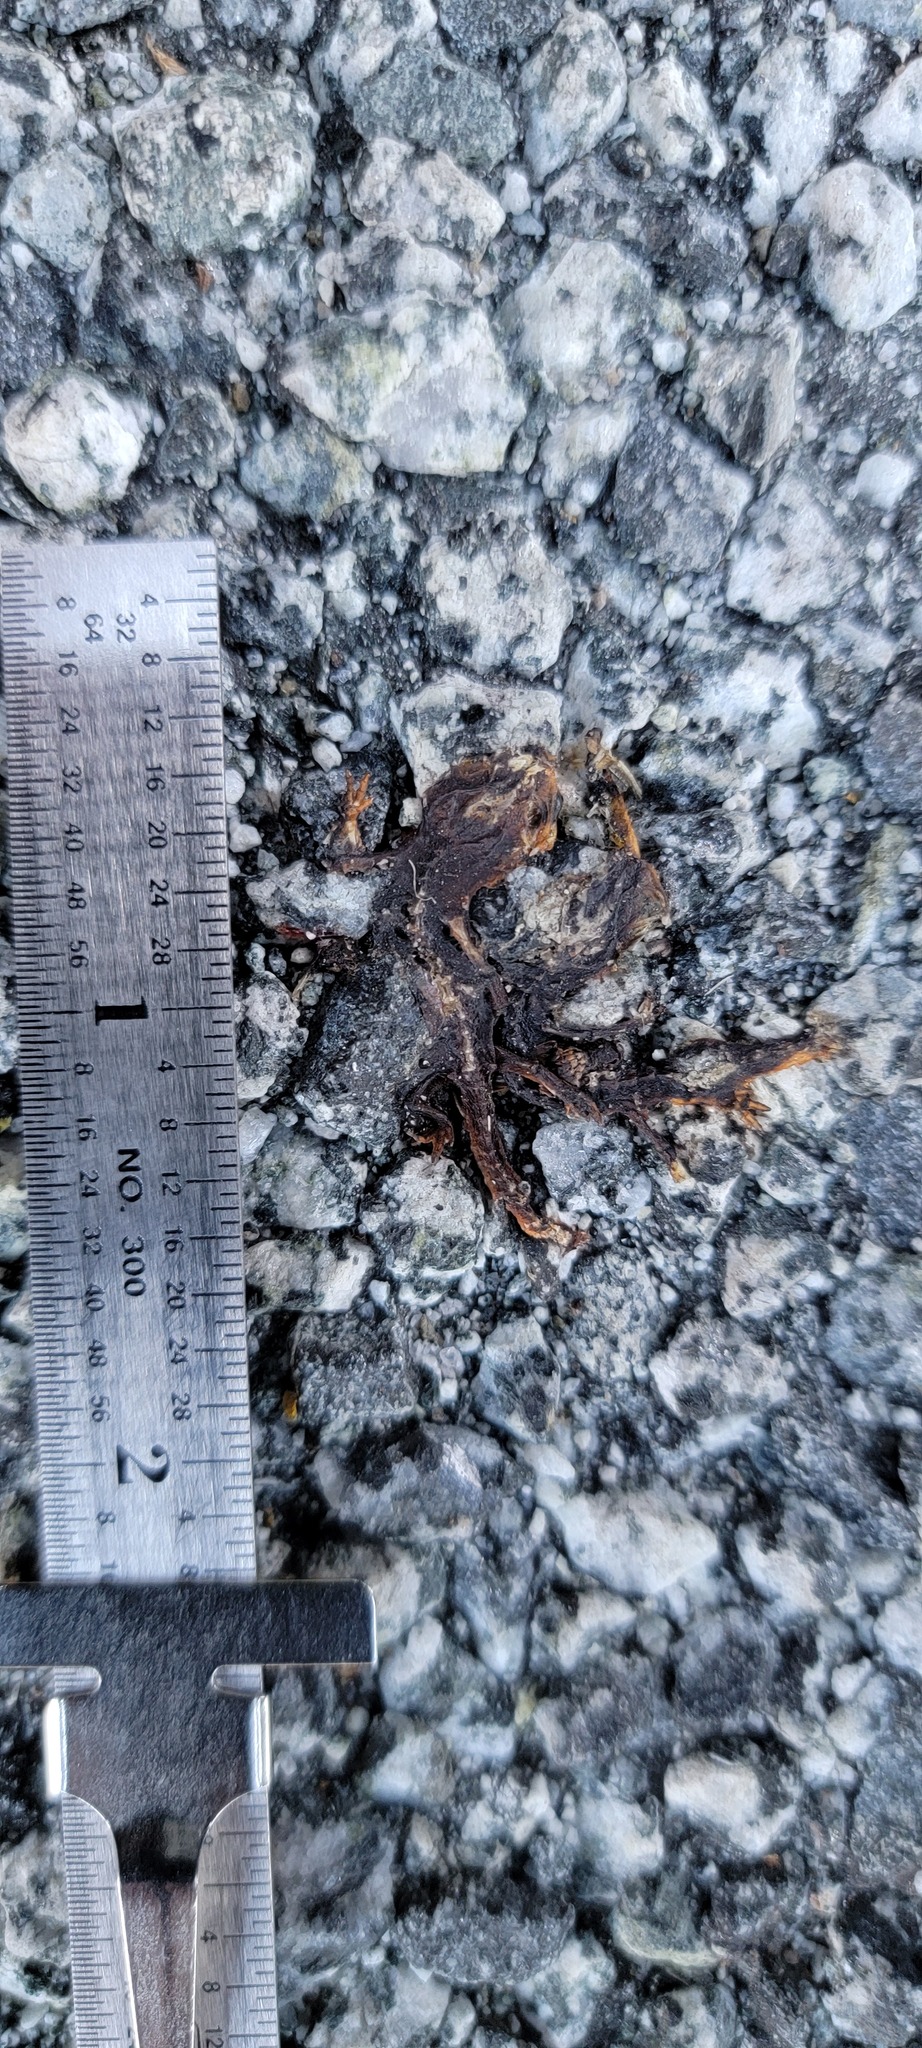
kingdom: Animalia
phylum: Chordata
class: Amphibia
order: Caudata
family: Salamandridae
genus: Taricha
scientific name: Taricha
